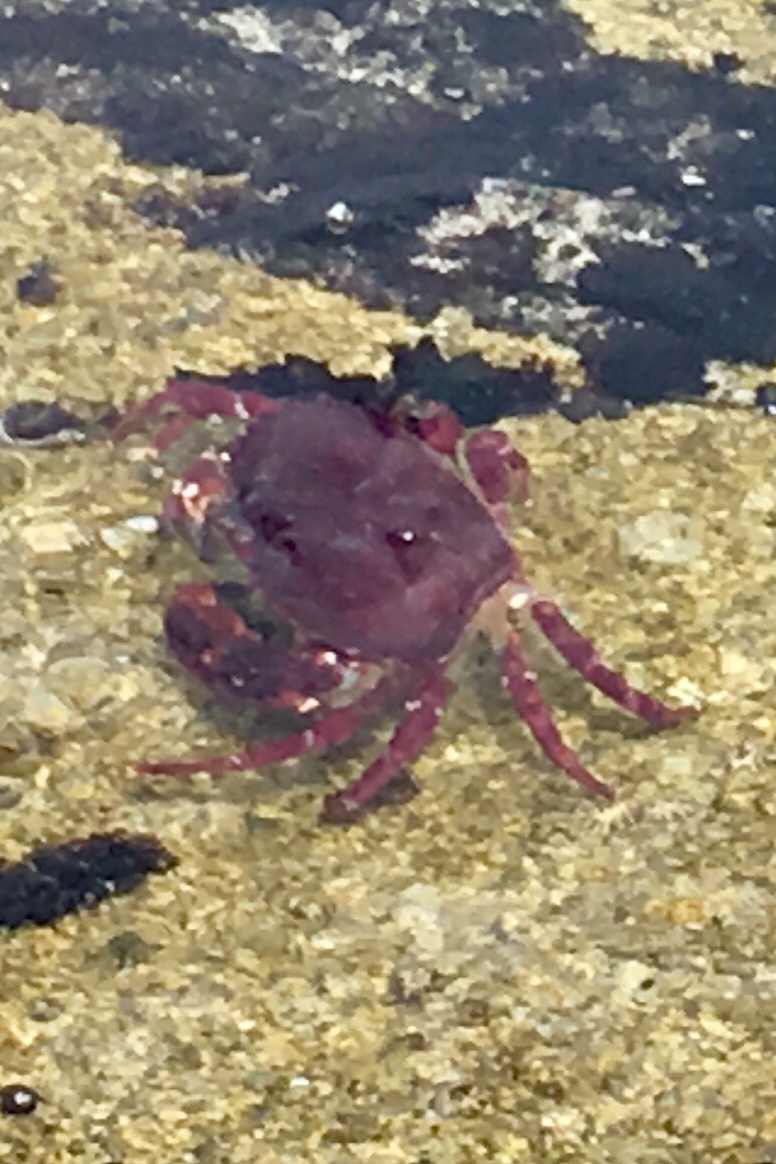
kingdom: Animalia
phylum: Arthropoda
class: Malacostraca
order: Decapoda
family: Cancridae
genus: Cancer
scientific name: Cancer productus
